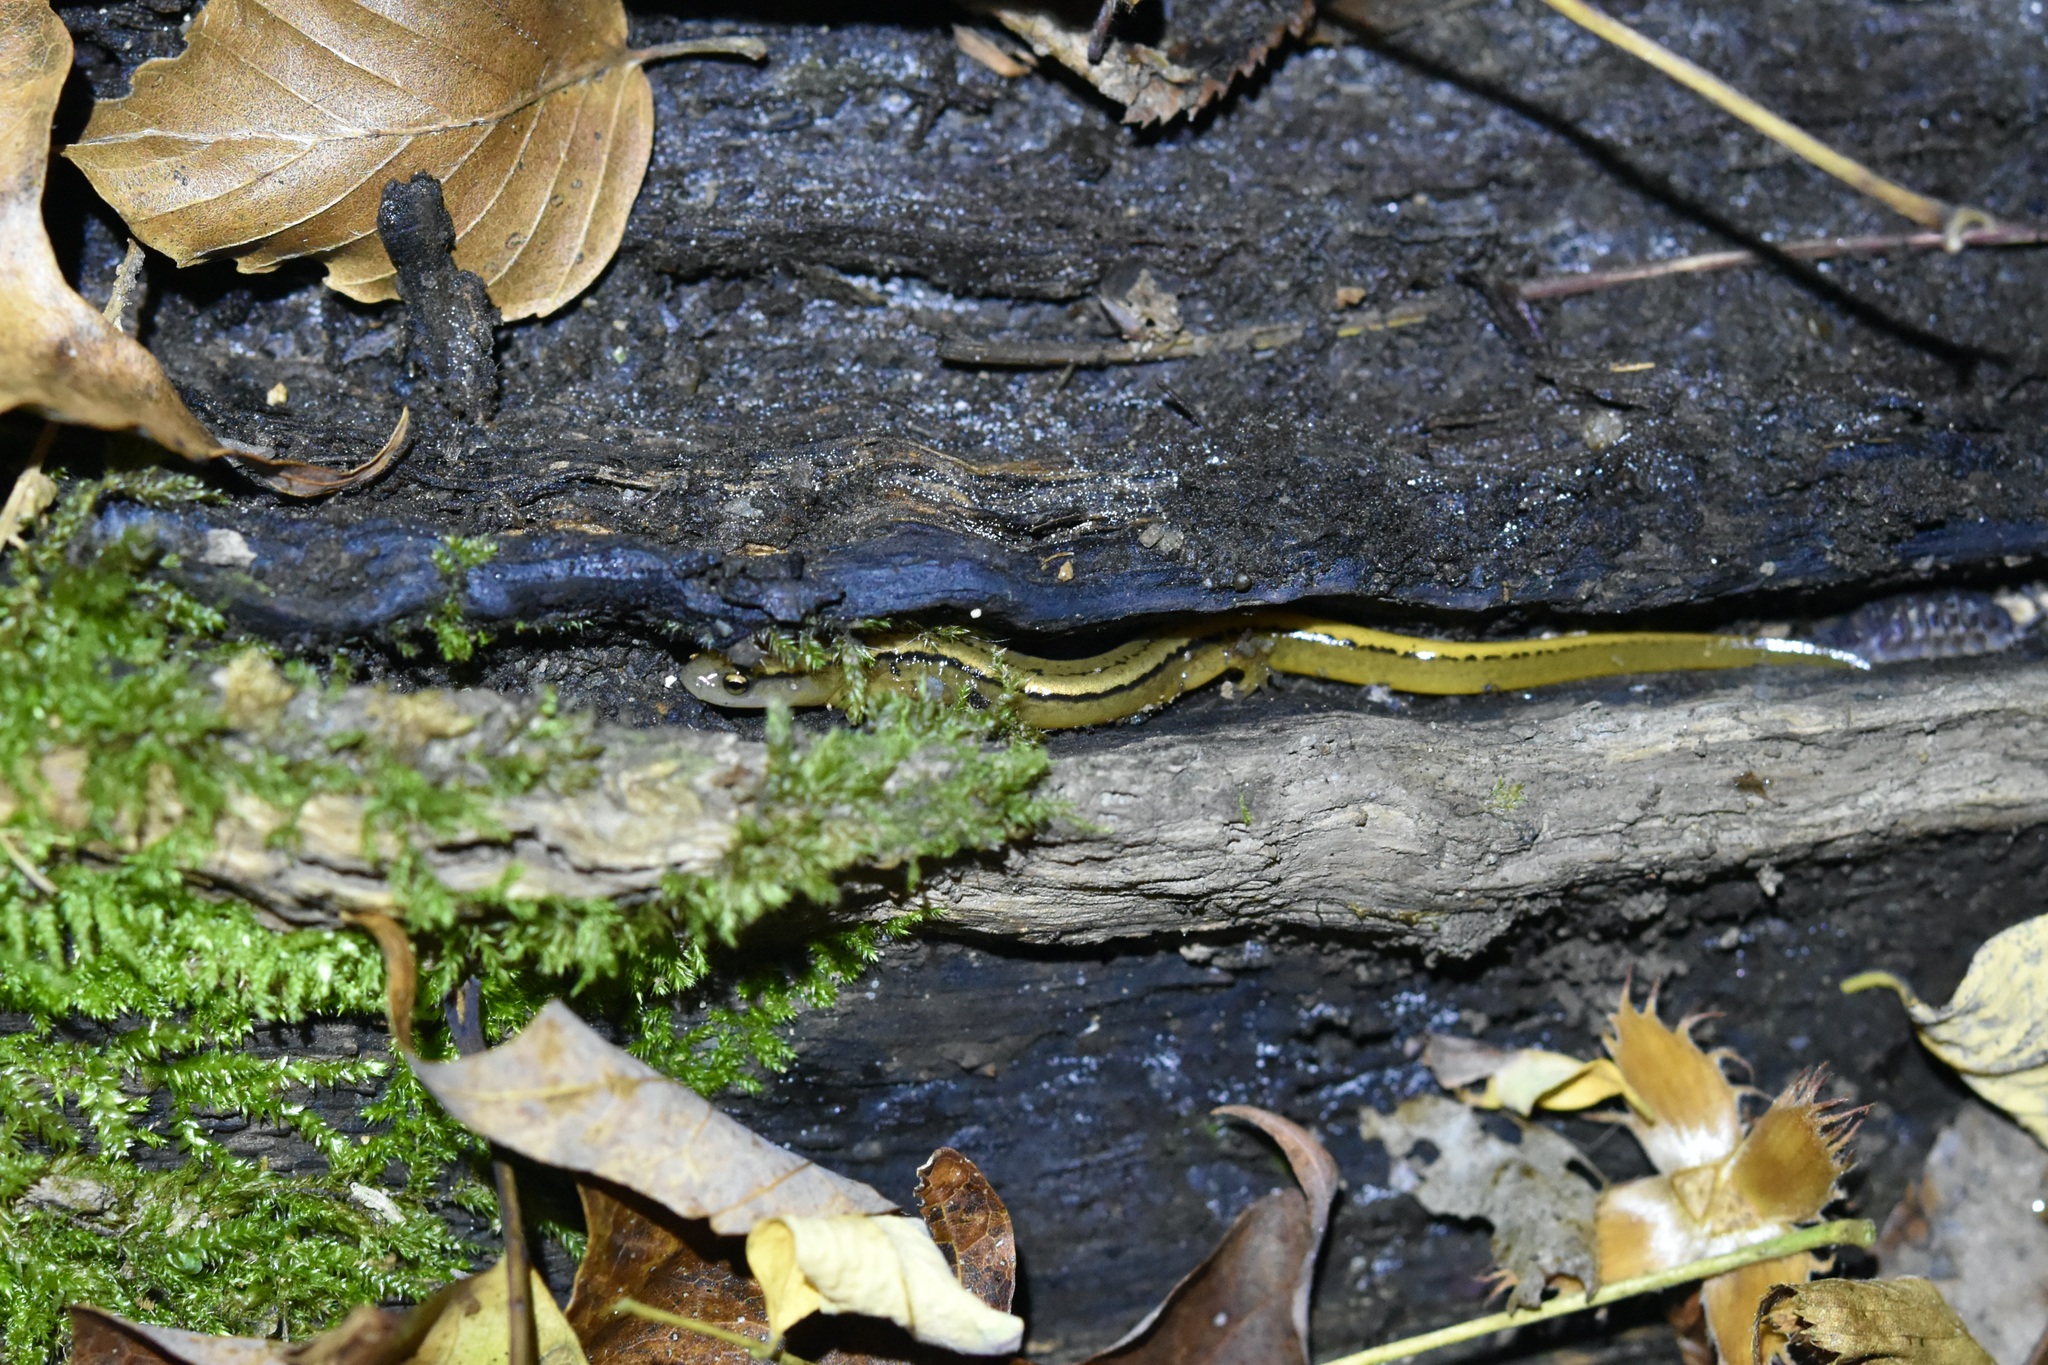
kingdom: Animalia
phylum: Chordata
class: Amphibia
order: Caudata
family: Plethodontidae
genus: Eurycea
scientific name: Eurycea bislineata
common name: Northern two-lined salamander
